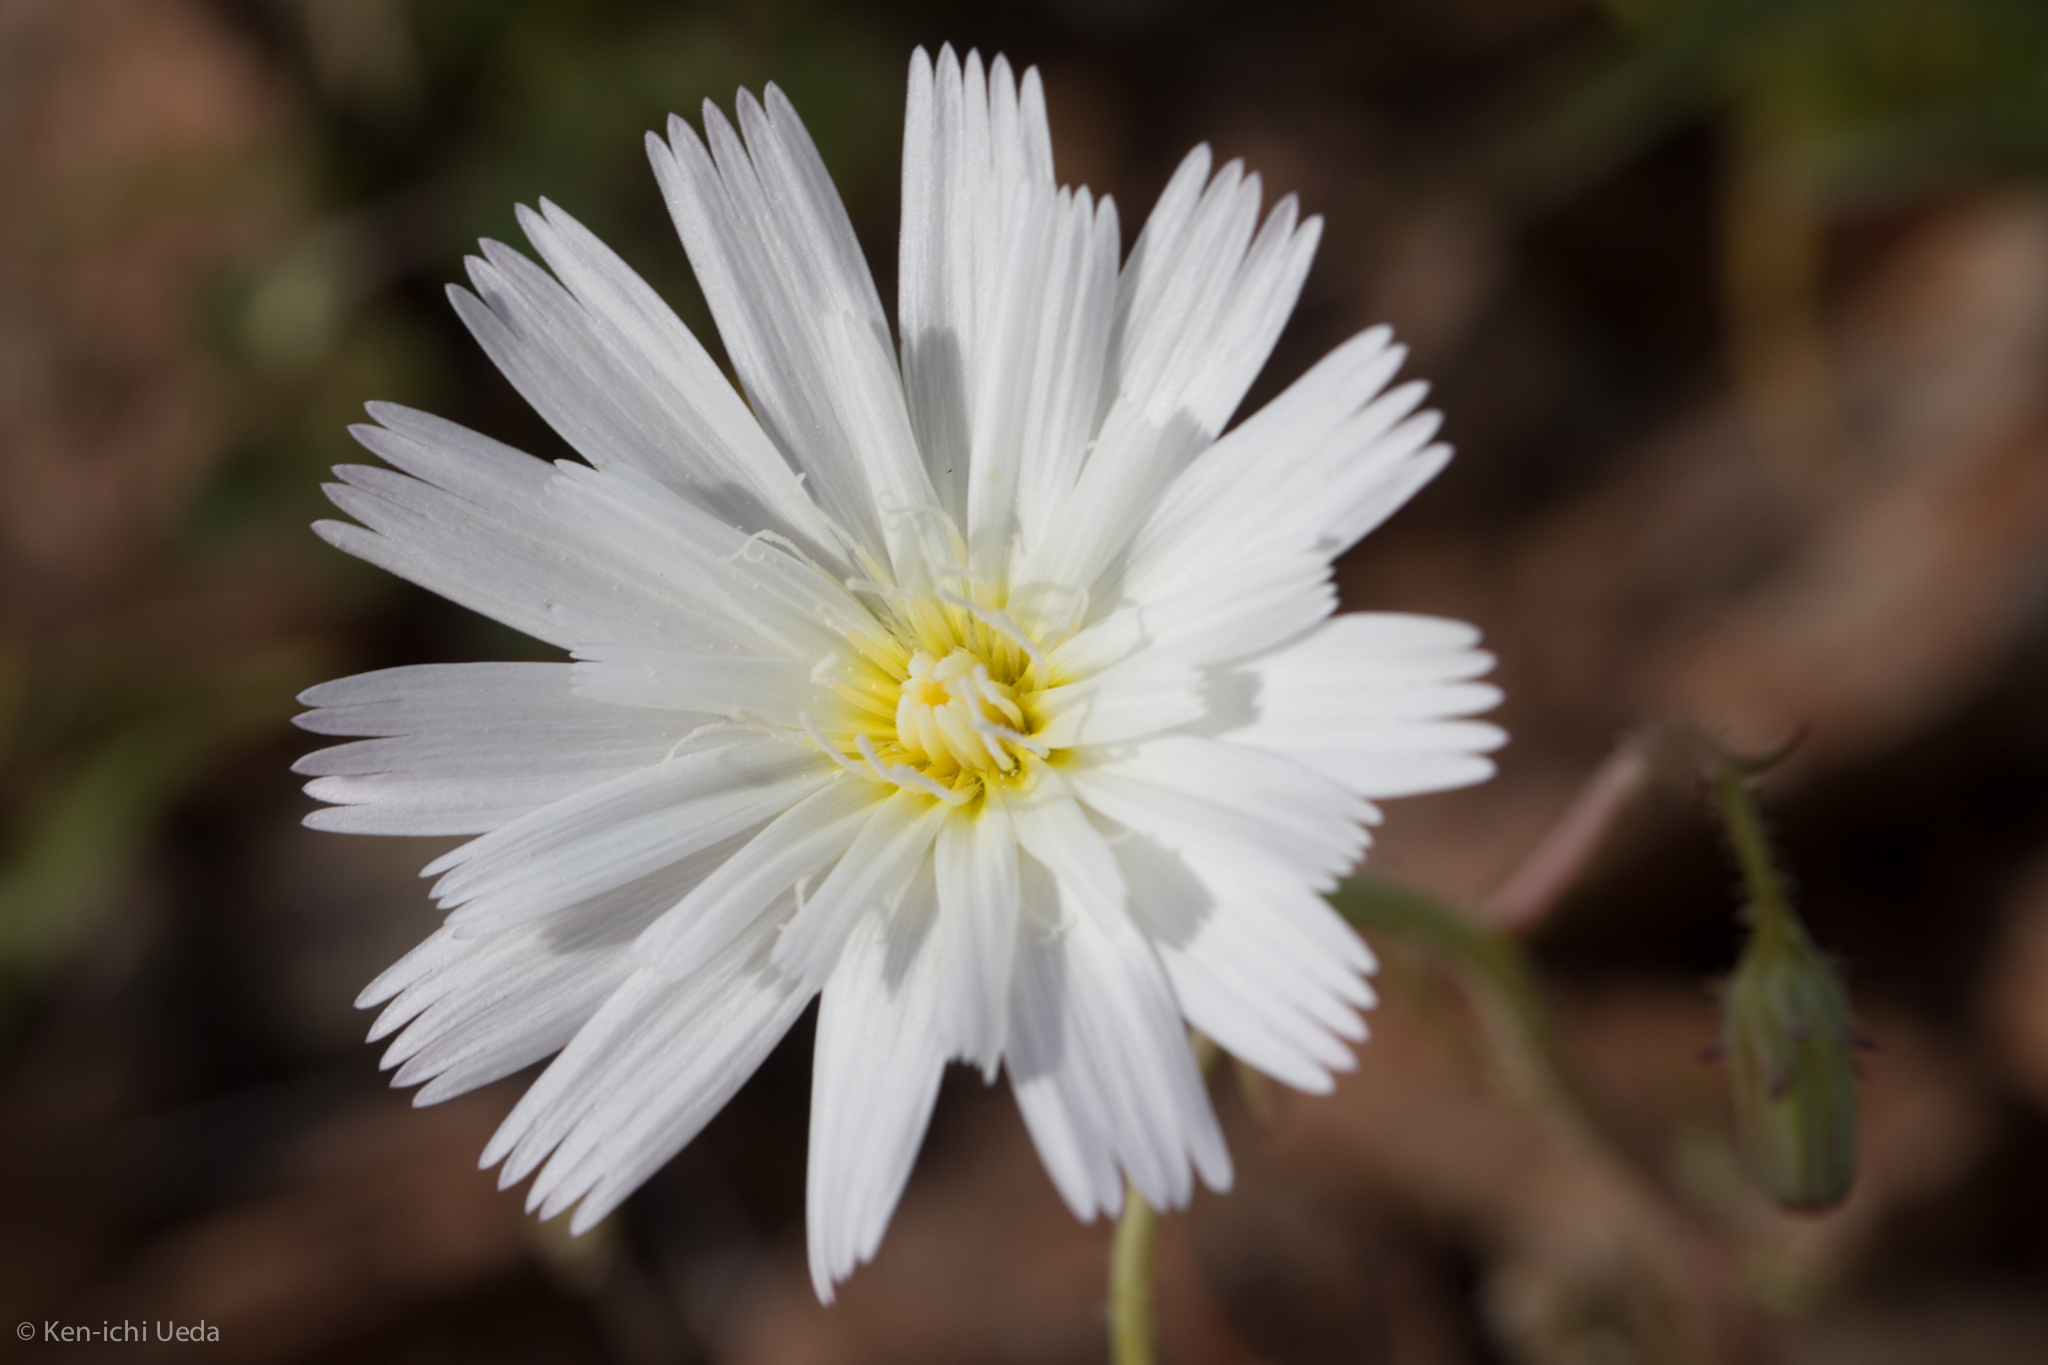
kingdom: Plantae
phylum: Tracheophyta
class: Magnoliopsida
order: Asterales
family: Asteraceae
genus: Calycoseris
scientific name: Calycoseris wrightii
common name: White tackstem
